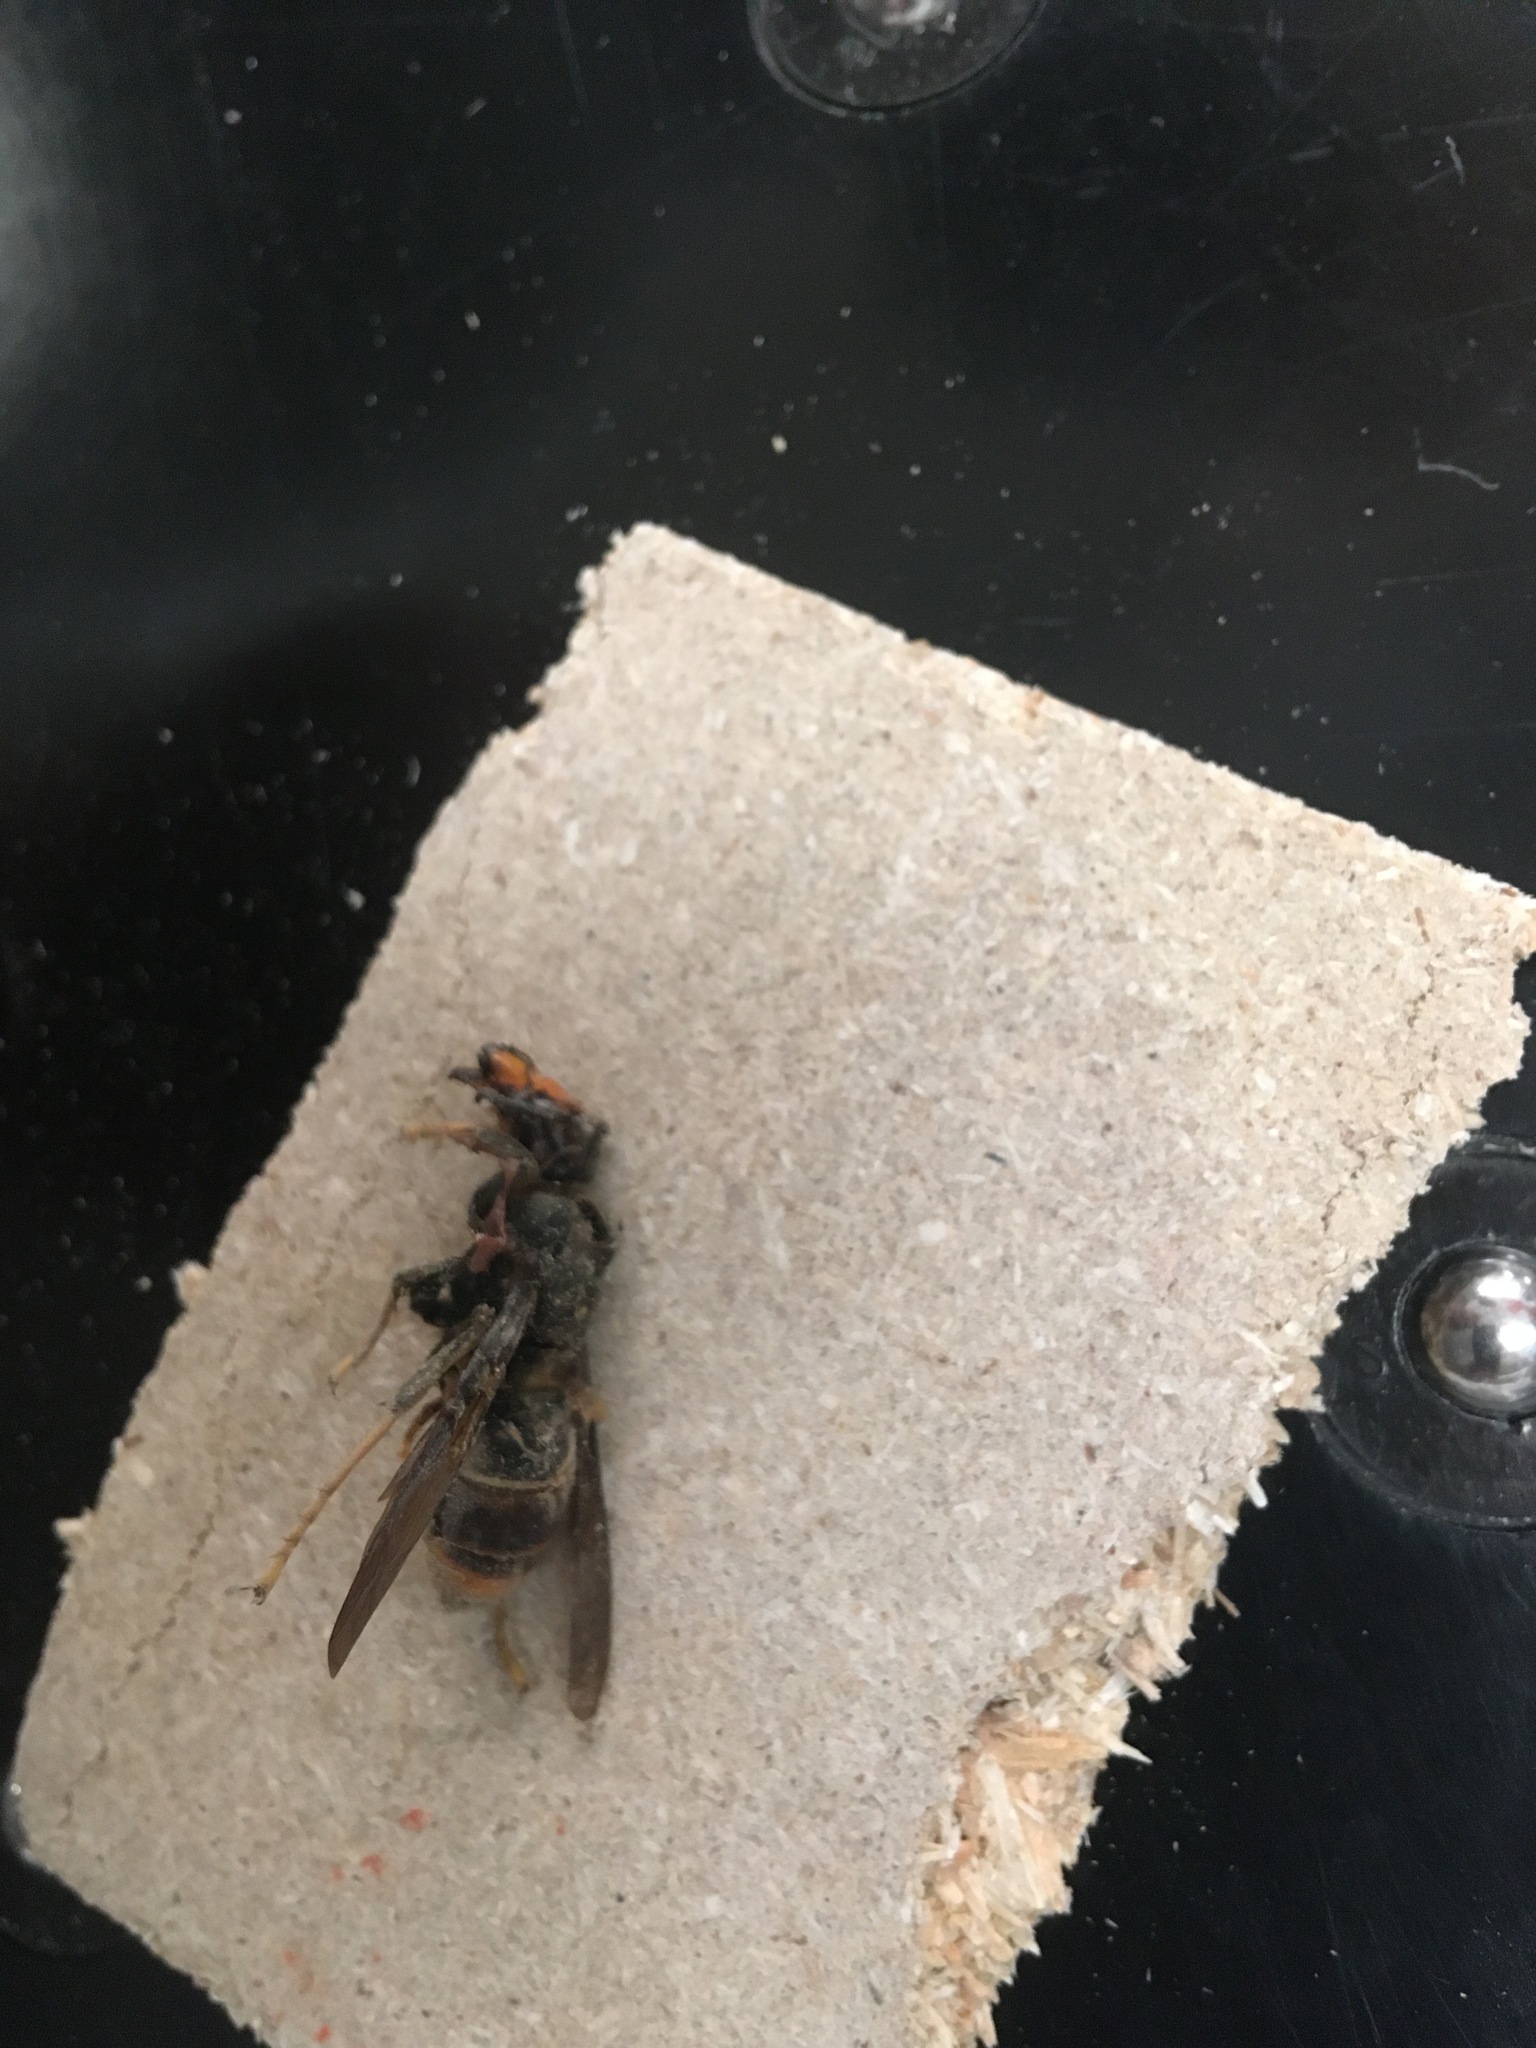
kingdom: Animalia
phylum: Arthropoda
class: Insecta
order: Hymenoptera
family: Vespidae
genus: Vespa
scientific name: Vespa velutina
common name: Asian hornet
